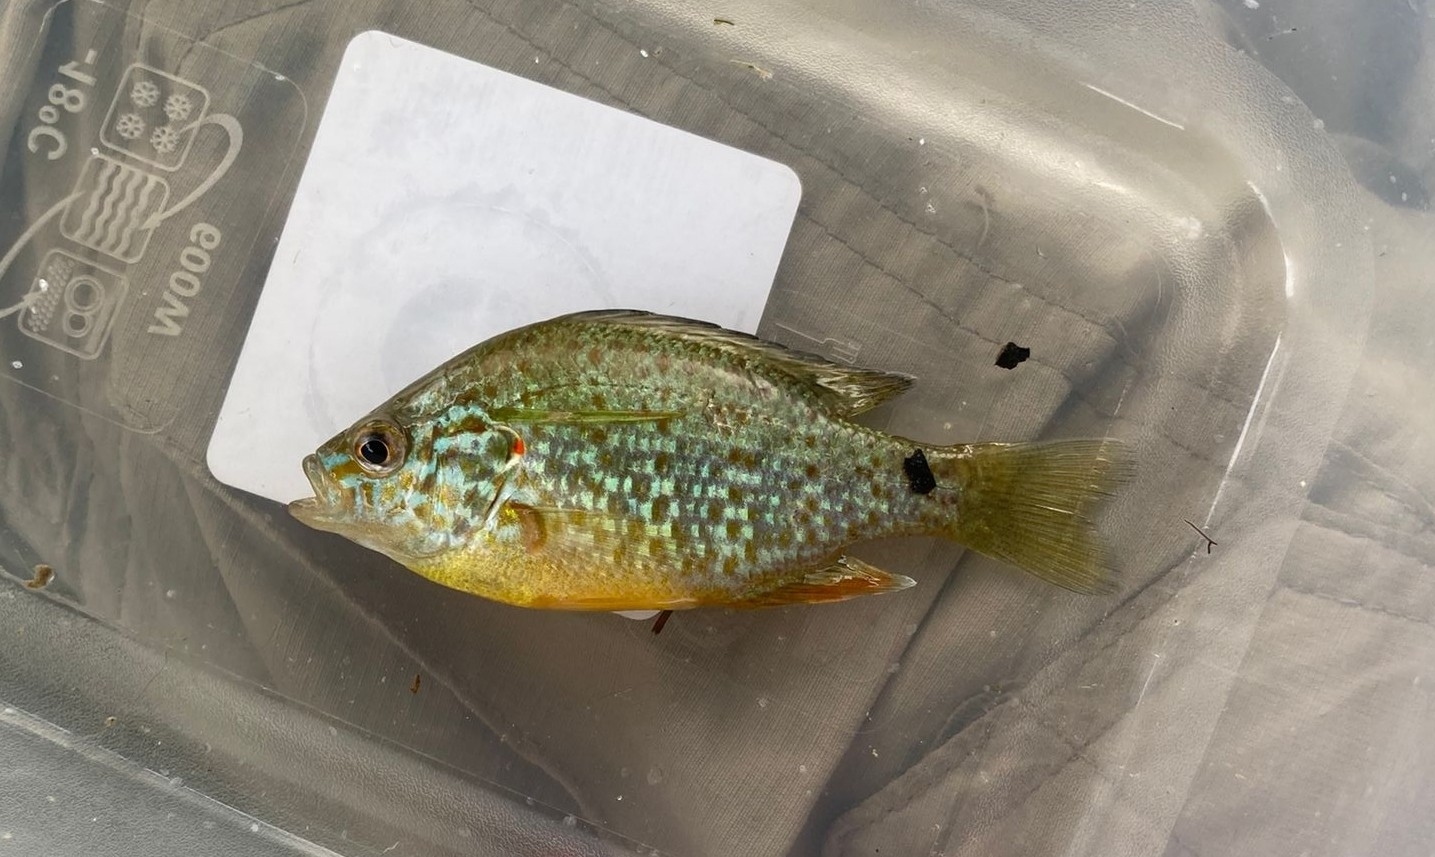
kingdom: Animalia
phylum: Chordata
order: Perciformes
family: Centrarchidae
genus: Lepomis
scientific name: Lepomis gibbosus
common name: Pumpkinseed
